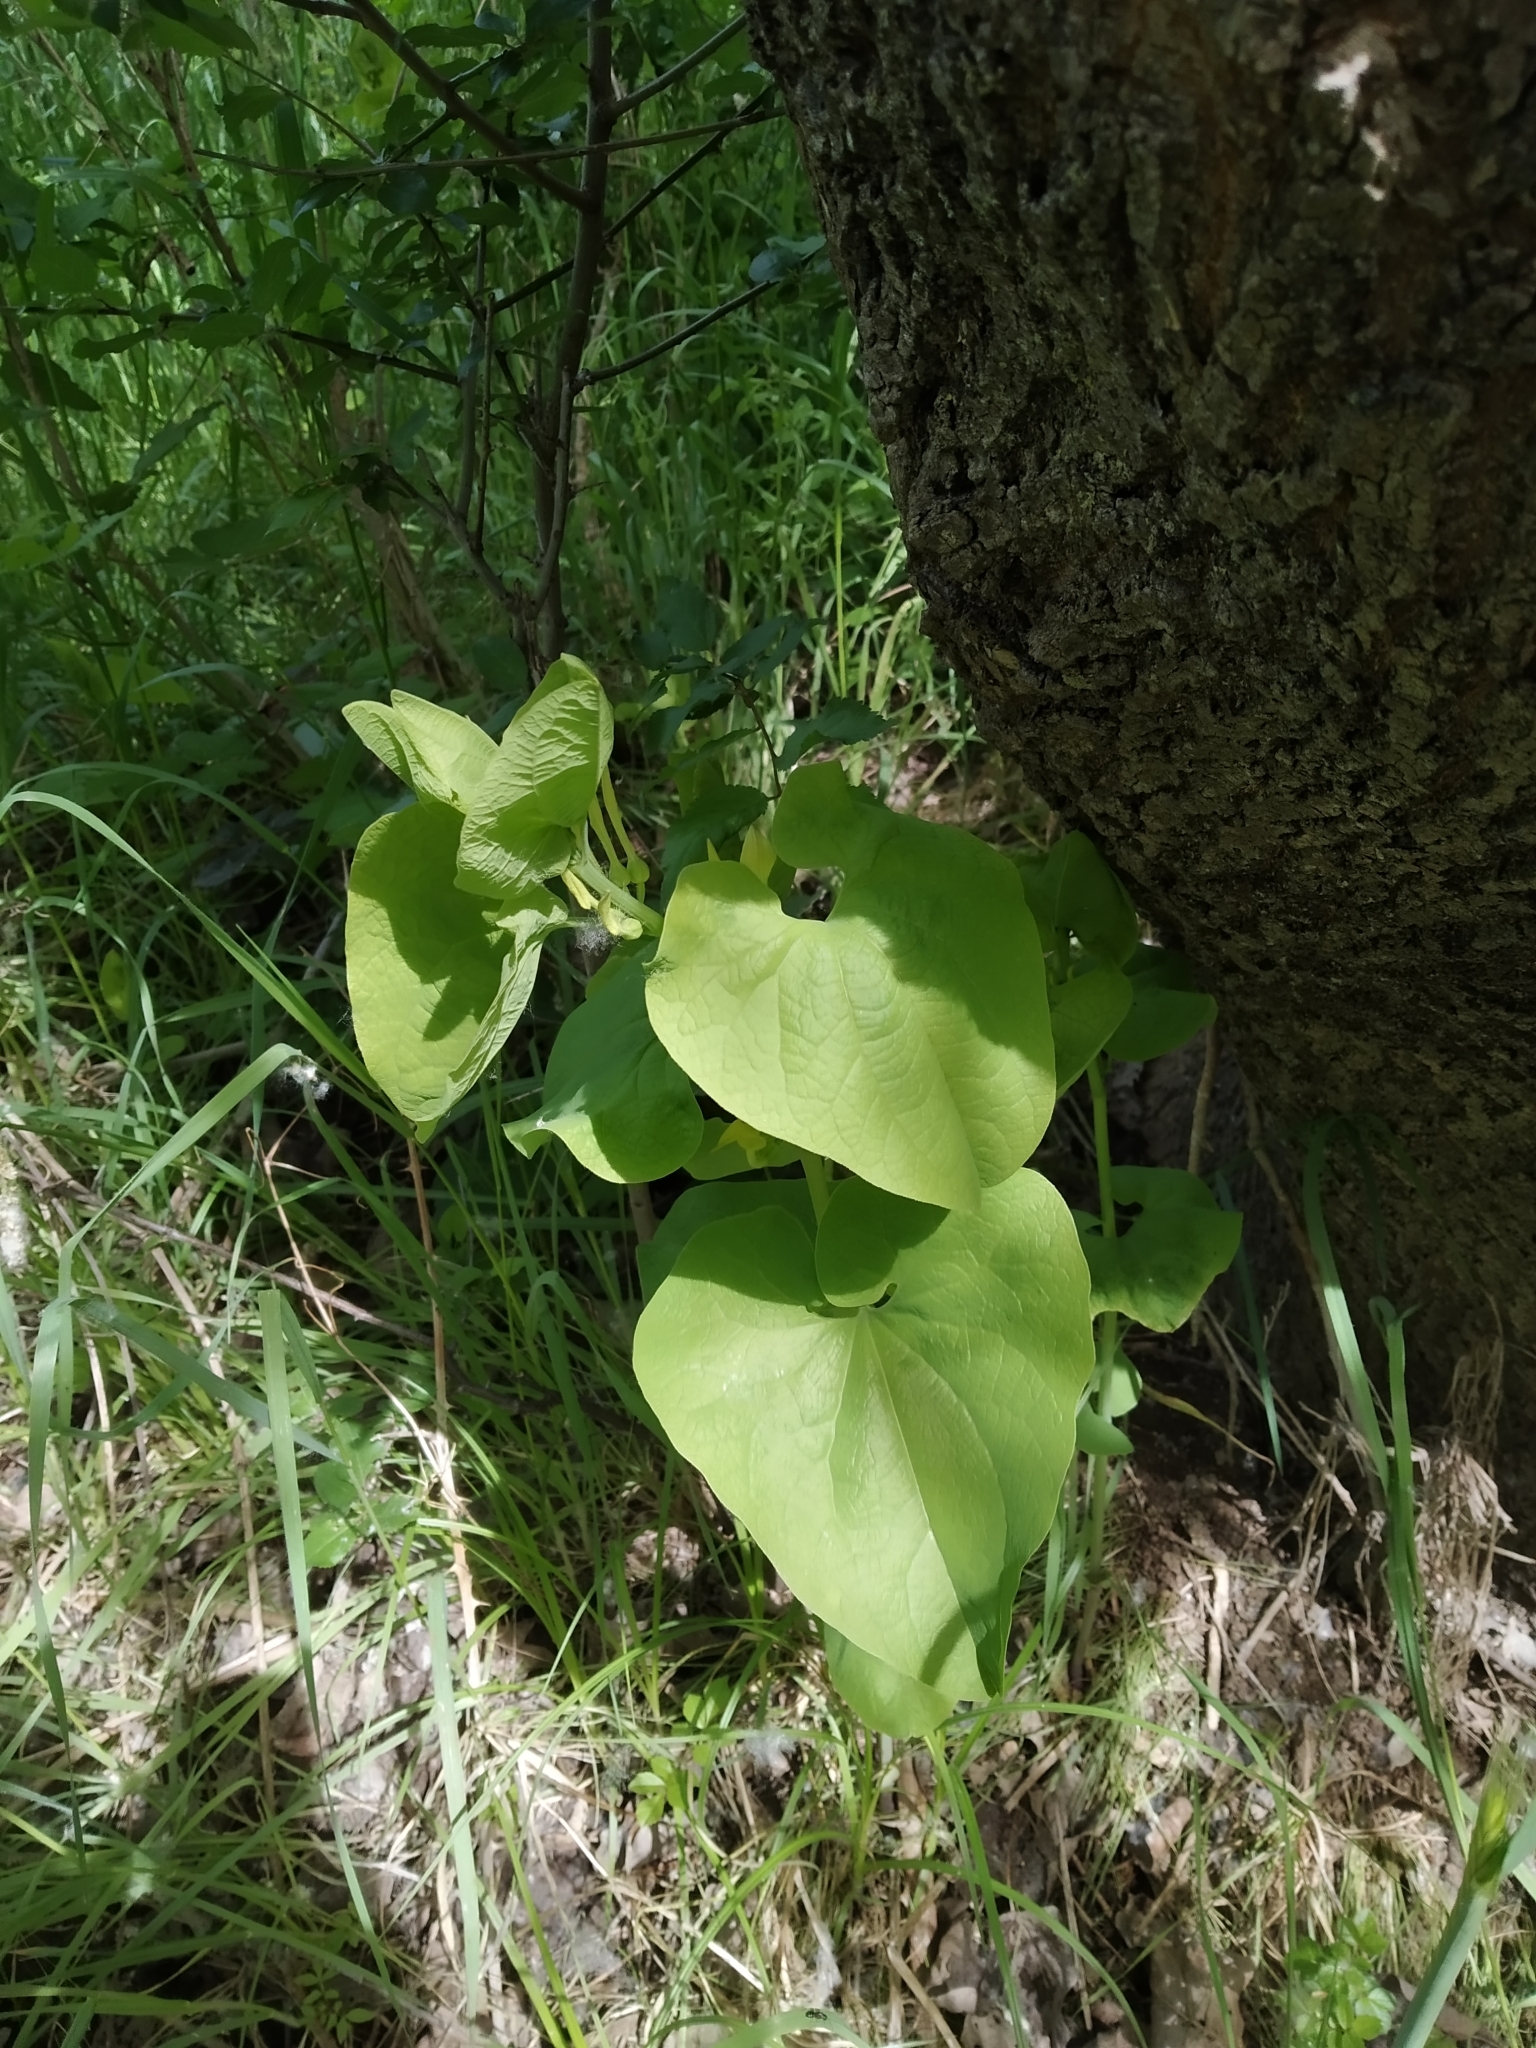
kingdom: Plantae
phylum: Tracheophyta
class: Magnoliopsida
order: Piperales
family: Aristolochiaceae
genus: Aristolochia
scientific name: Aristolochia clematitis
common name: Birthwort
